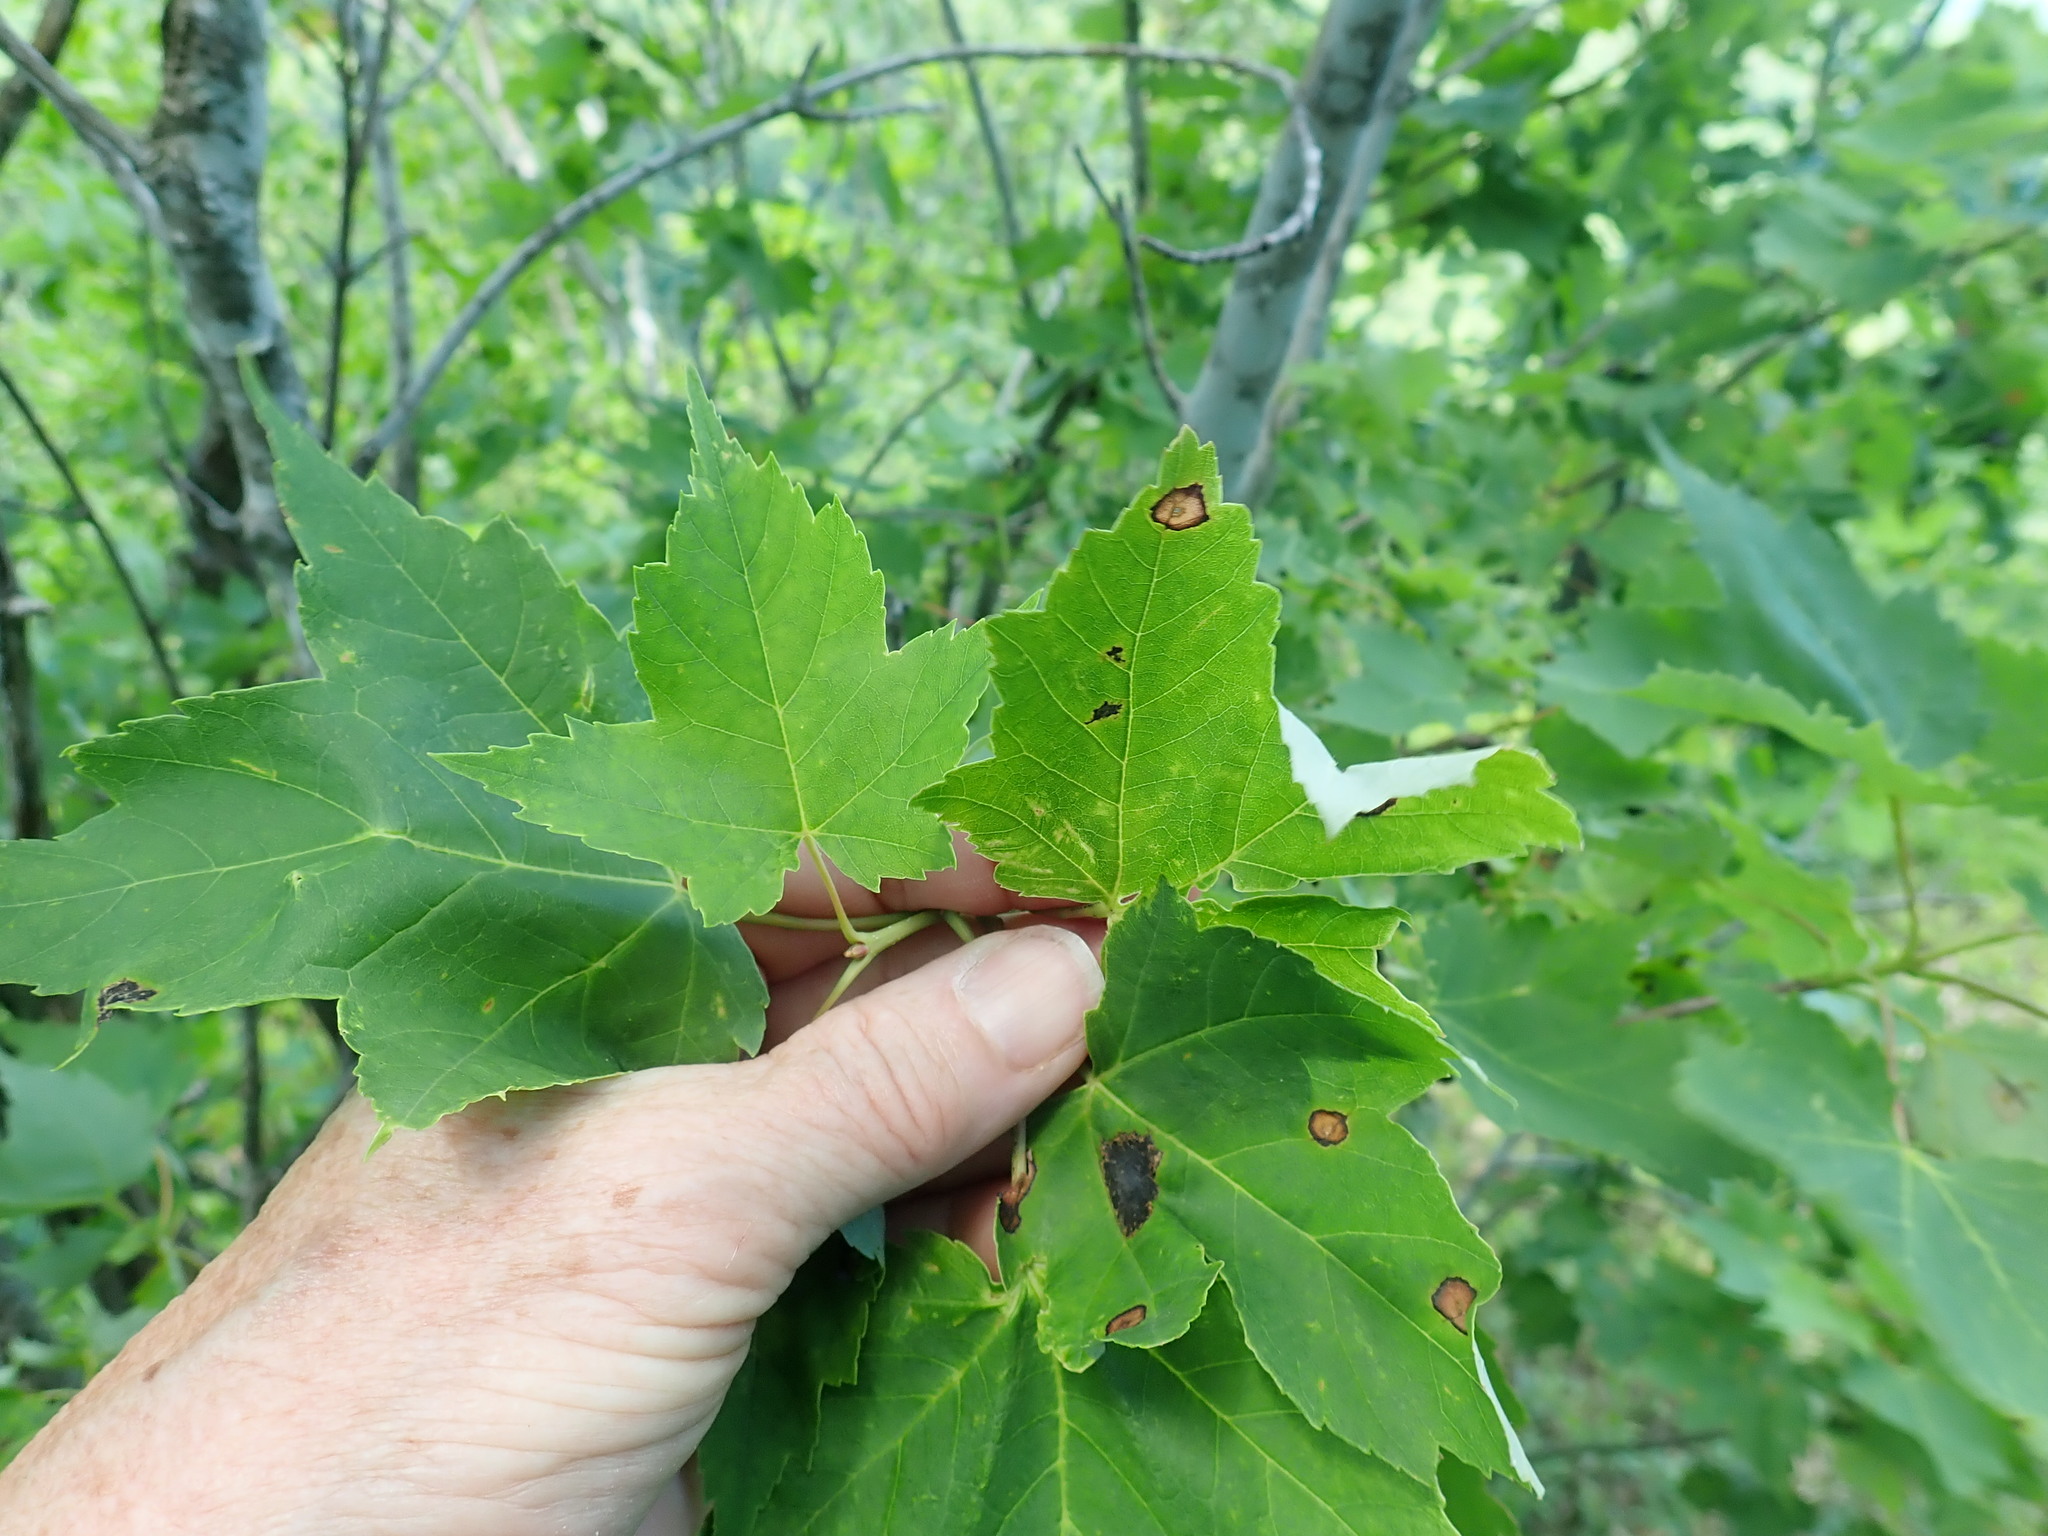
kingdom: Animalia
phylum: Arthropoda
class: Insecta
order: Diptera
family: Cecidomyiidae
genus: Acericecis
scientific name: Acericecis ocellaris
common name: Ocellate gall midge
